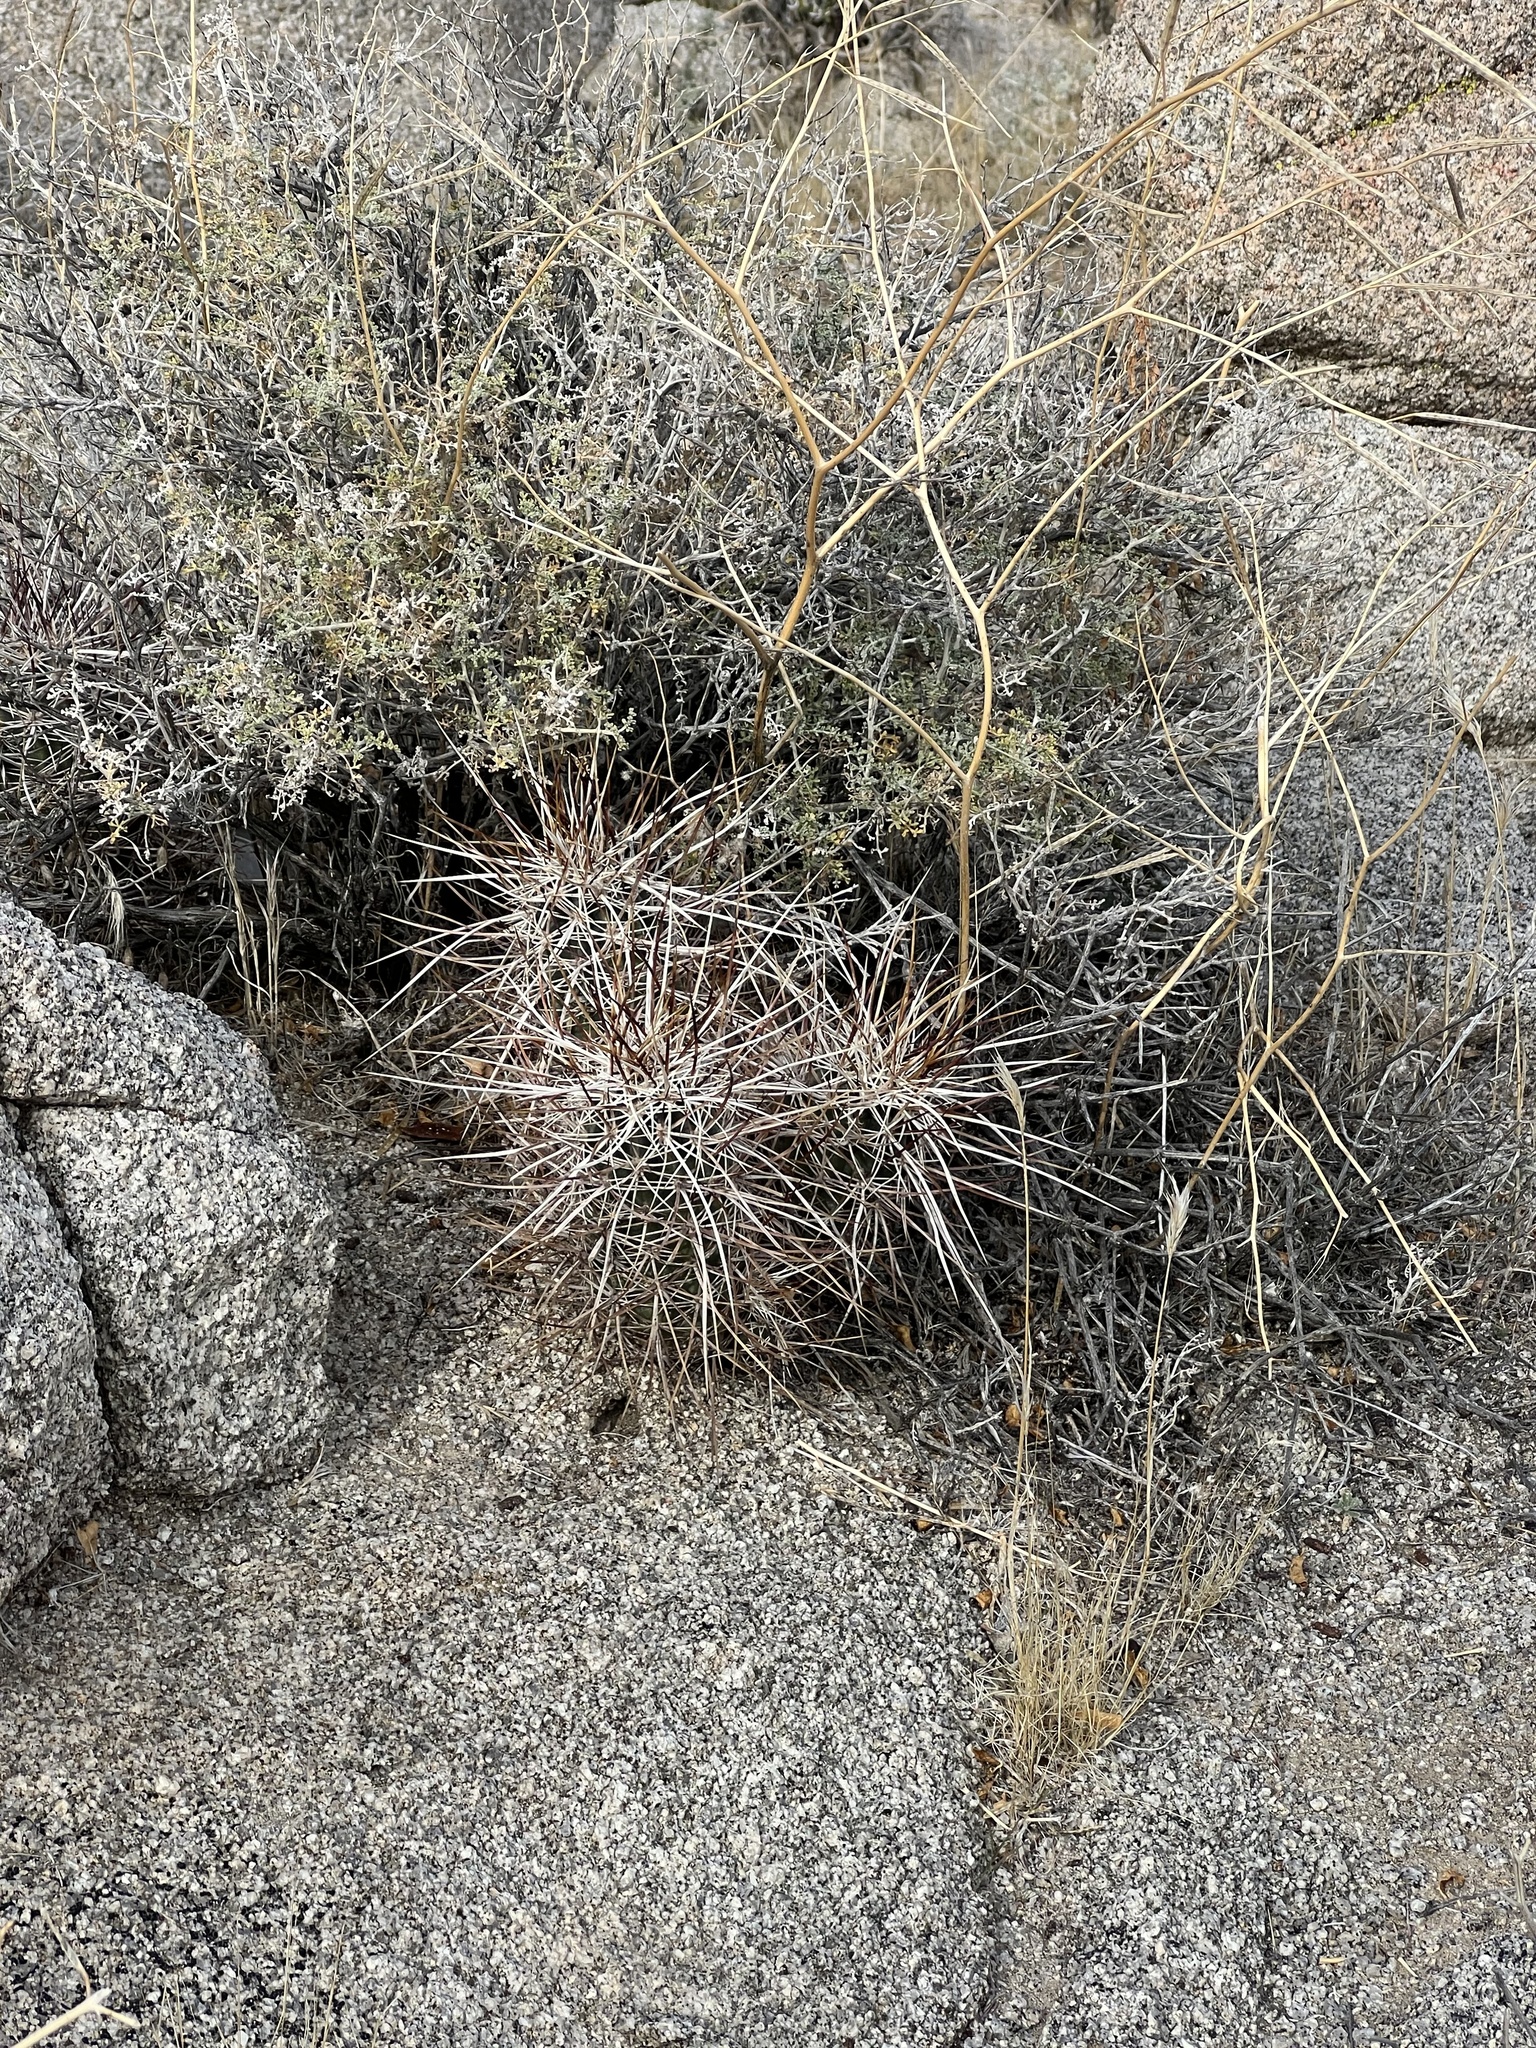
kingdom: Plantae
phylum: Tracheophyta
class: Magnoliopsida
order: Caryophyllales
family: Cactaceae
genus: Echinocereus
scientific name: Echinocereus engelmannii
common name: Engelmann's hedgehog cactus
